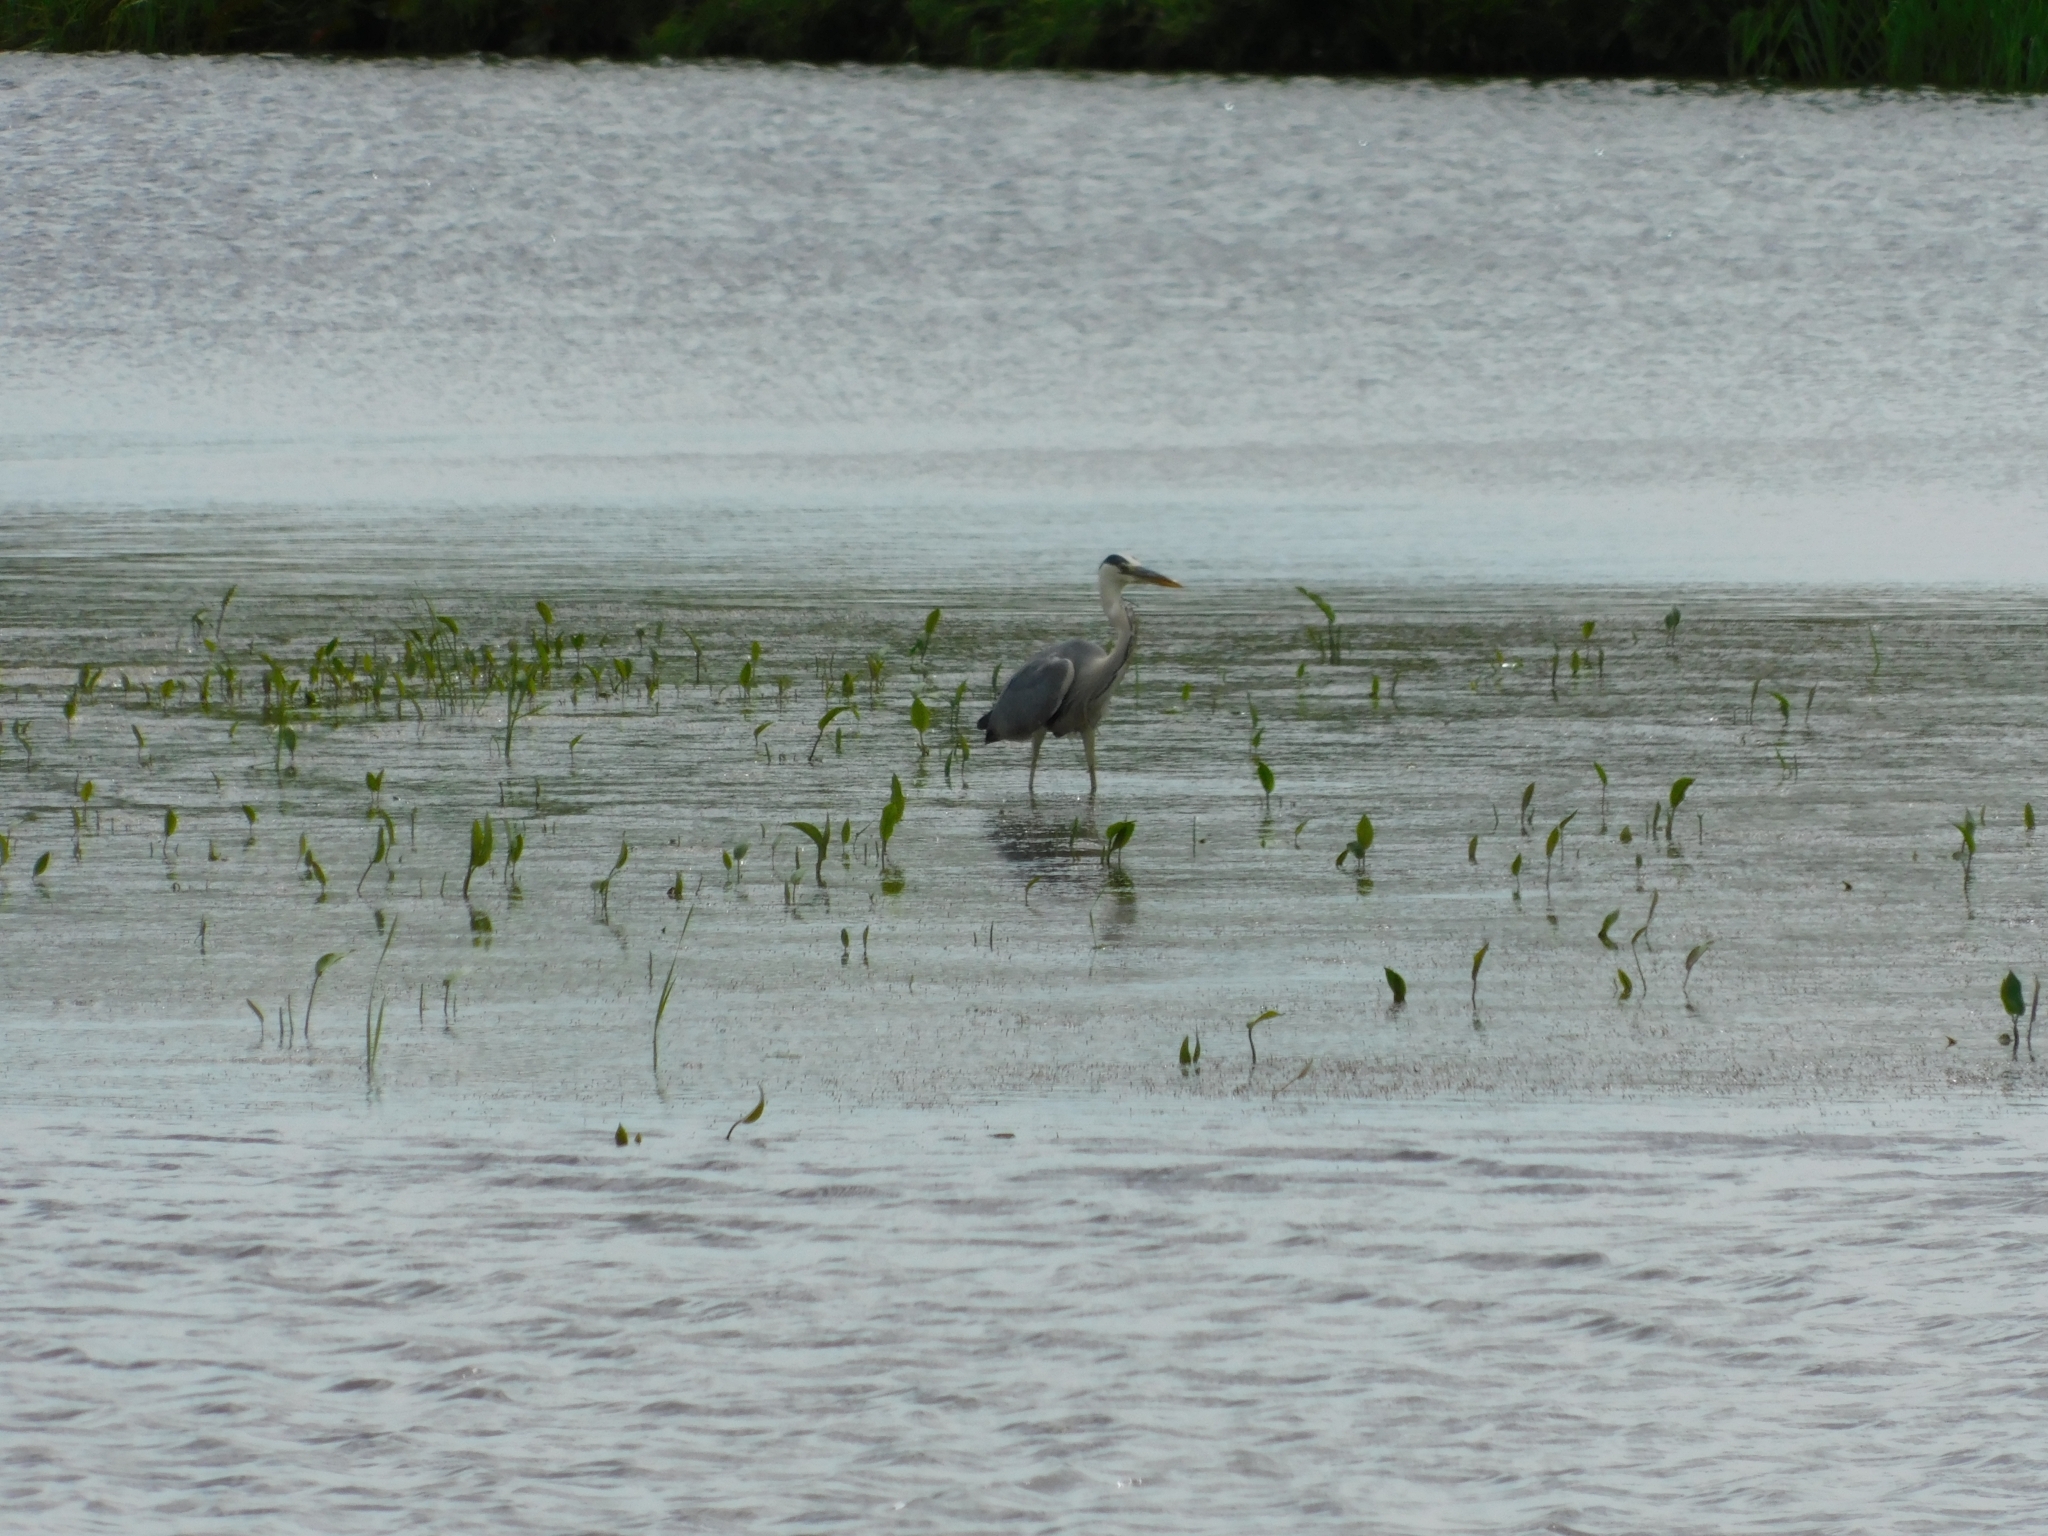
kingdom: Animalia
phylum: Chordata
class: Aves
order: Pelecaniformes
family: Ardeidae
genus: Ardea
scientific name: Ardea cinerea
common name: Grey heron
